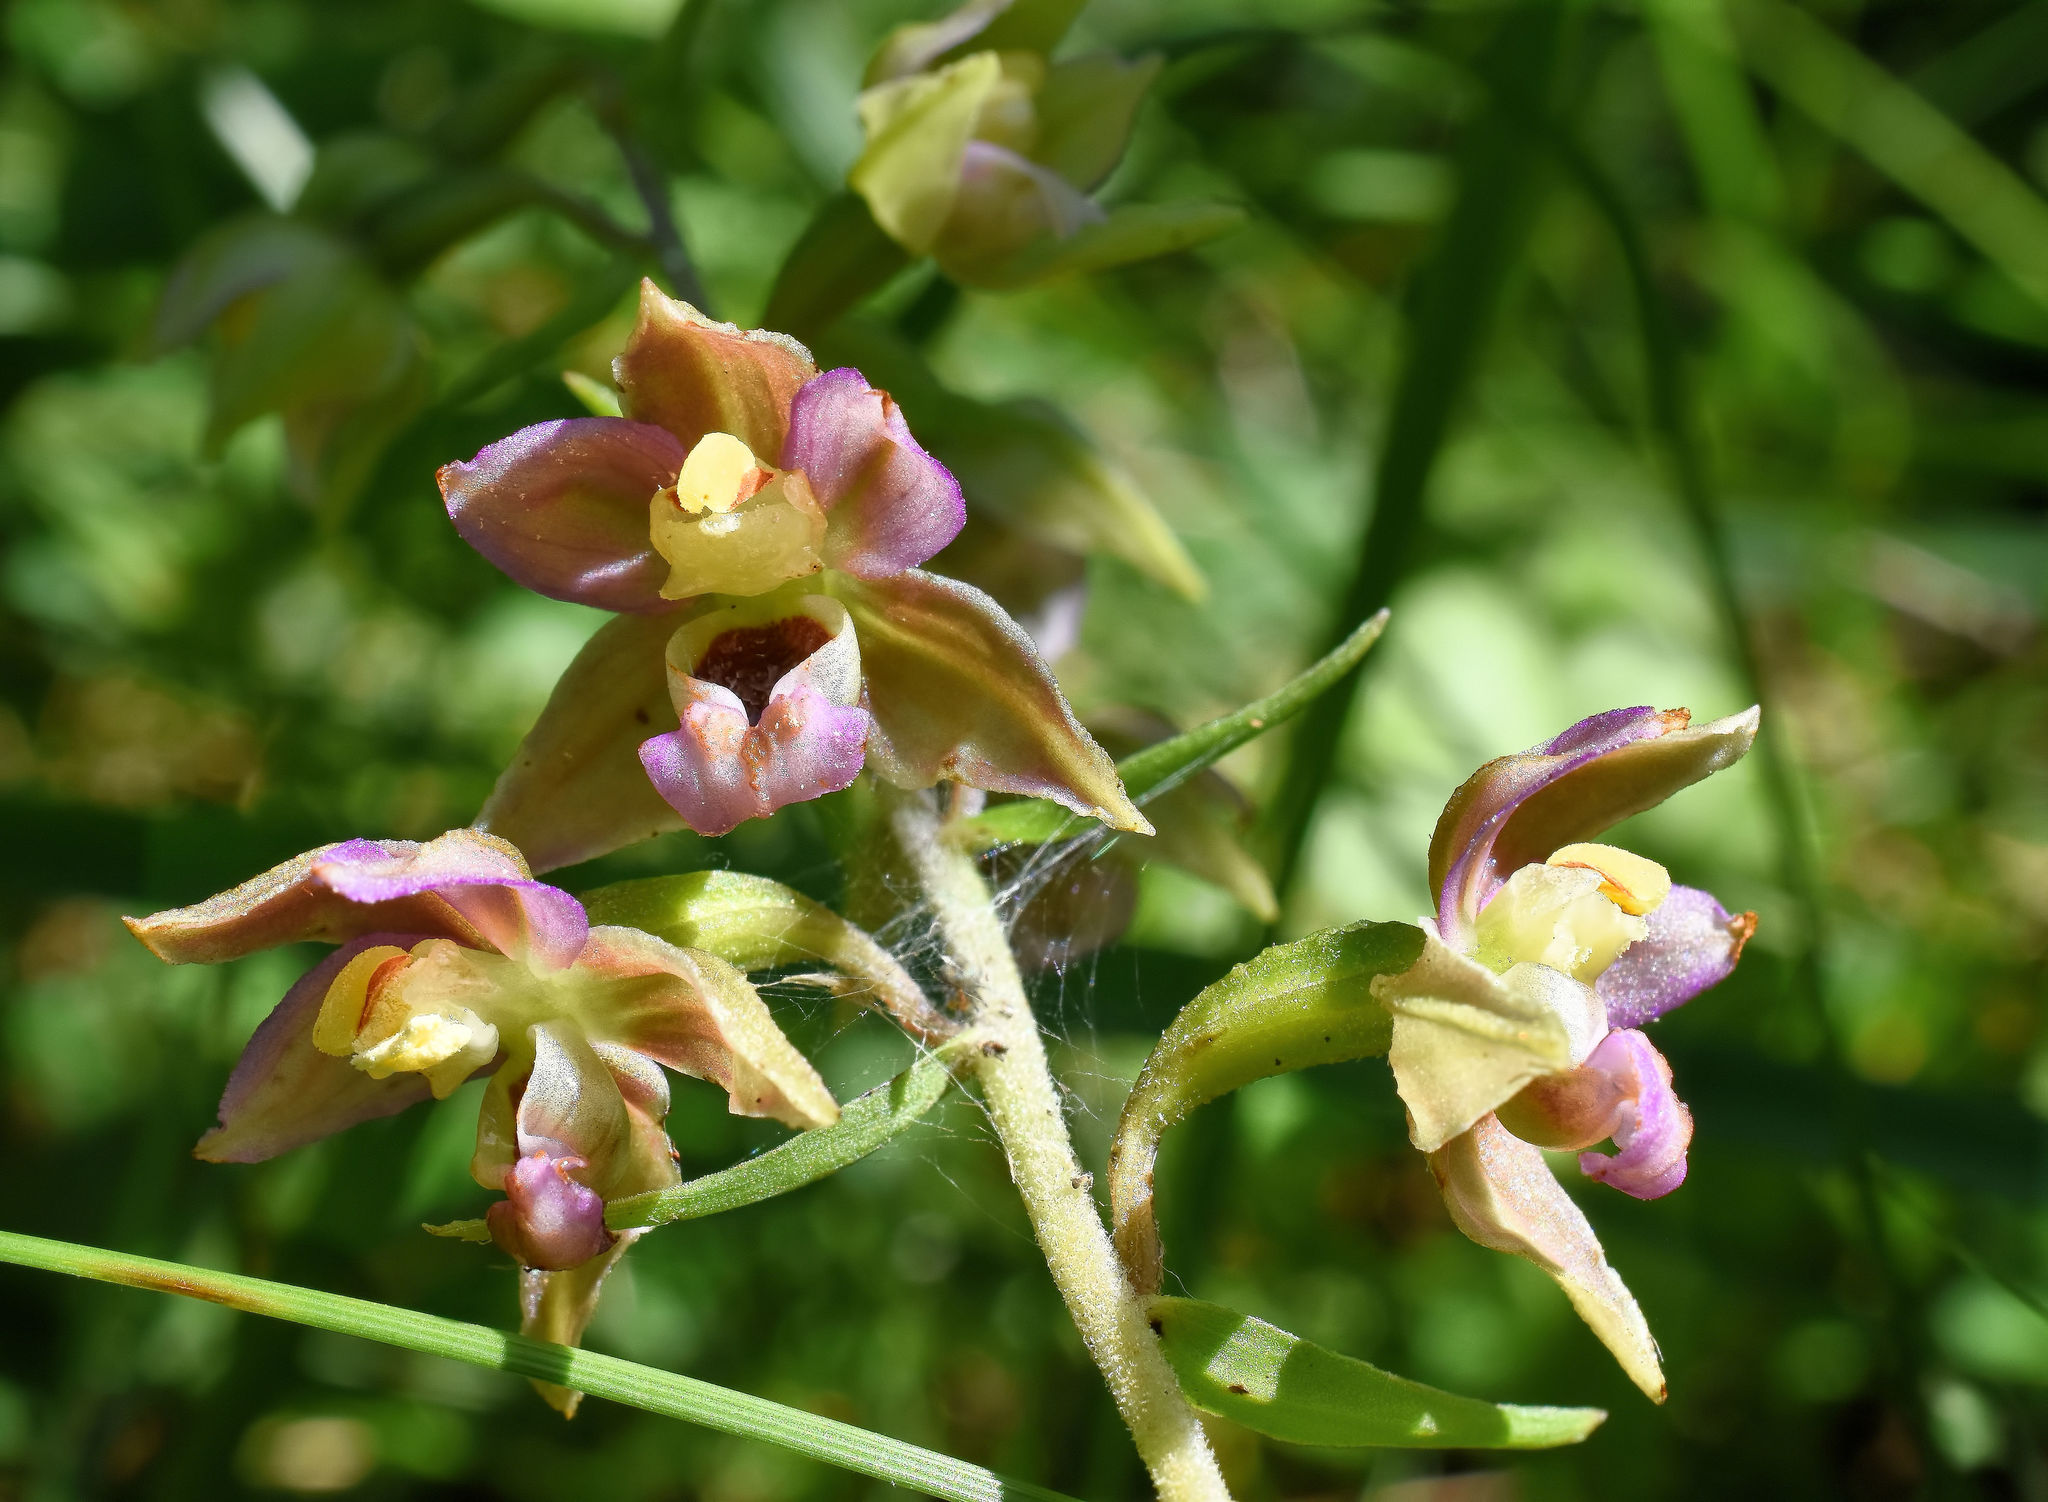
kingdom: Plantae
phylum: Tracheophyta
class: Liliopsida
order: Asparagales
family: Orchidaceae
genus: Epipactis
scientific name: Epipactis helleborine
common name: Broad-leaved helleborine
